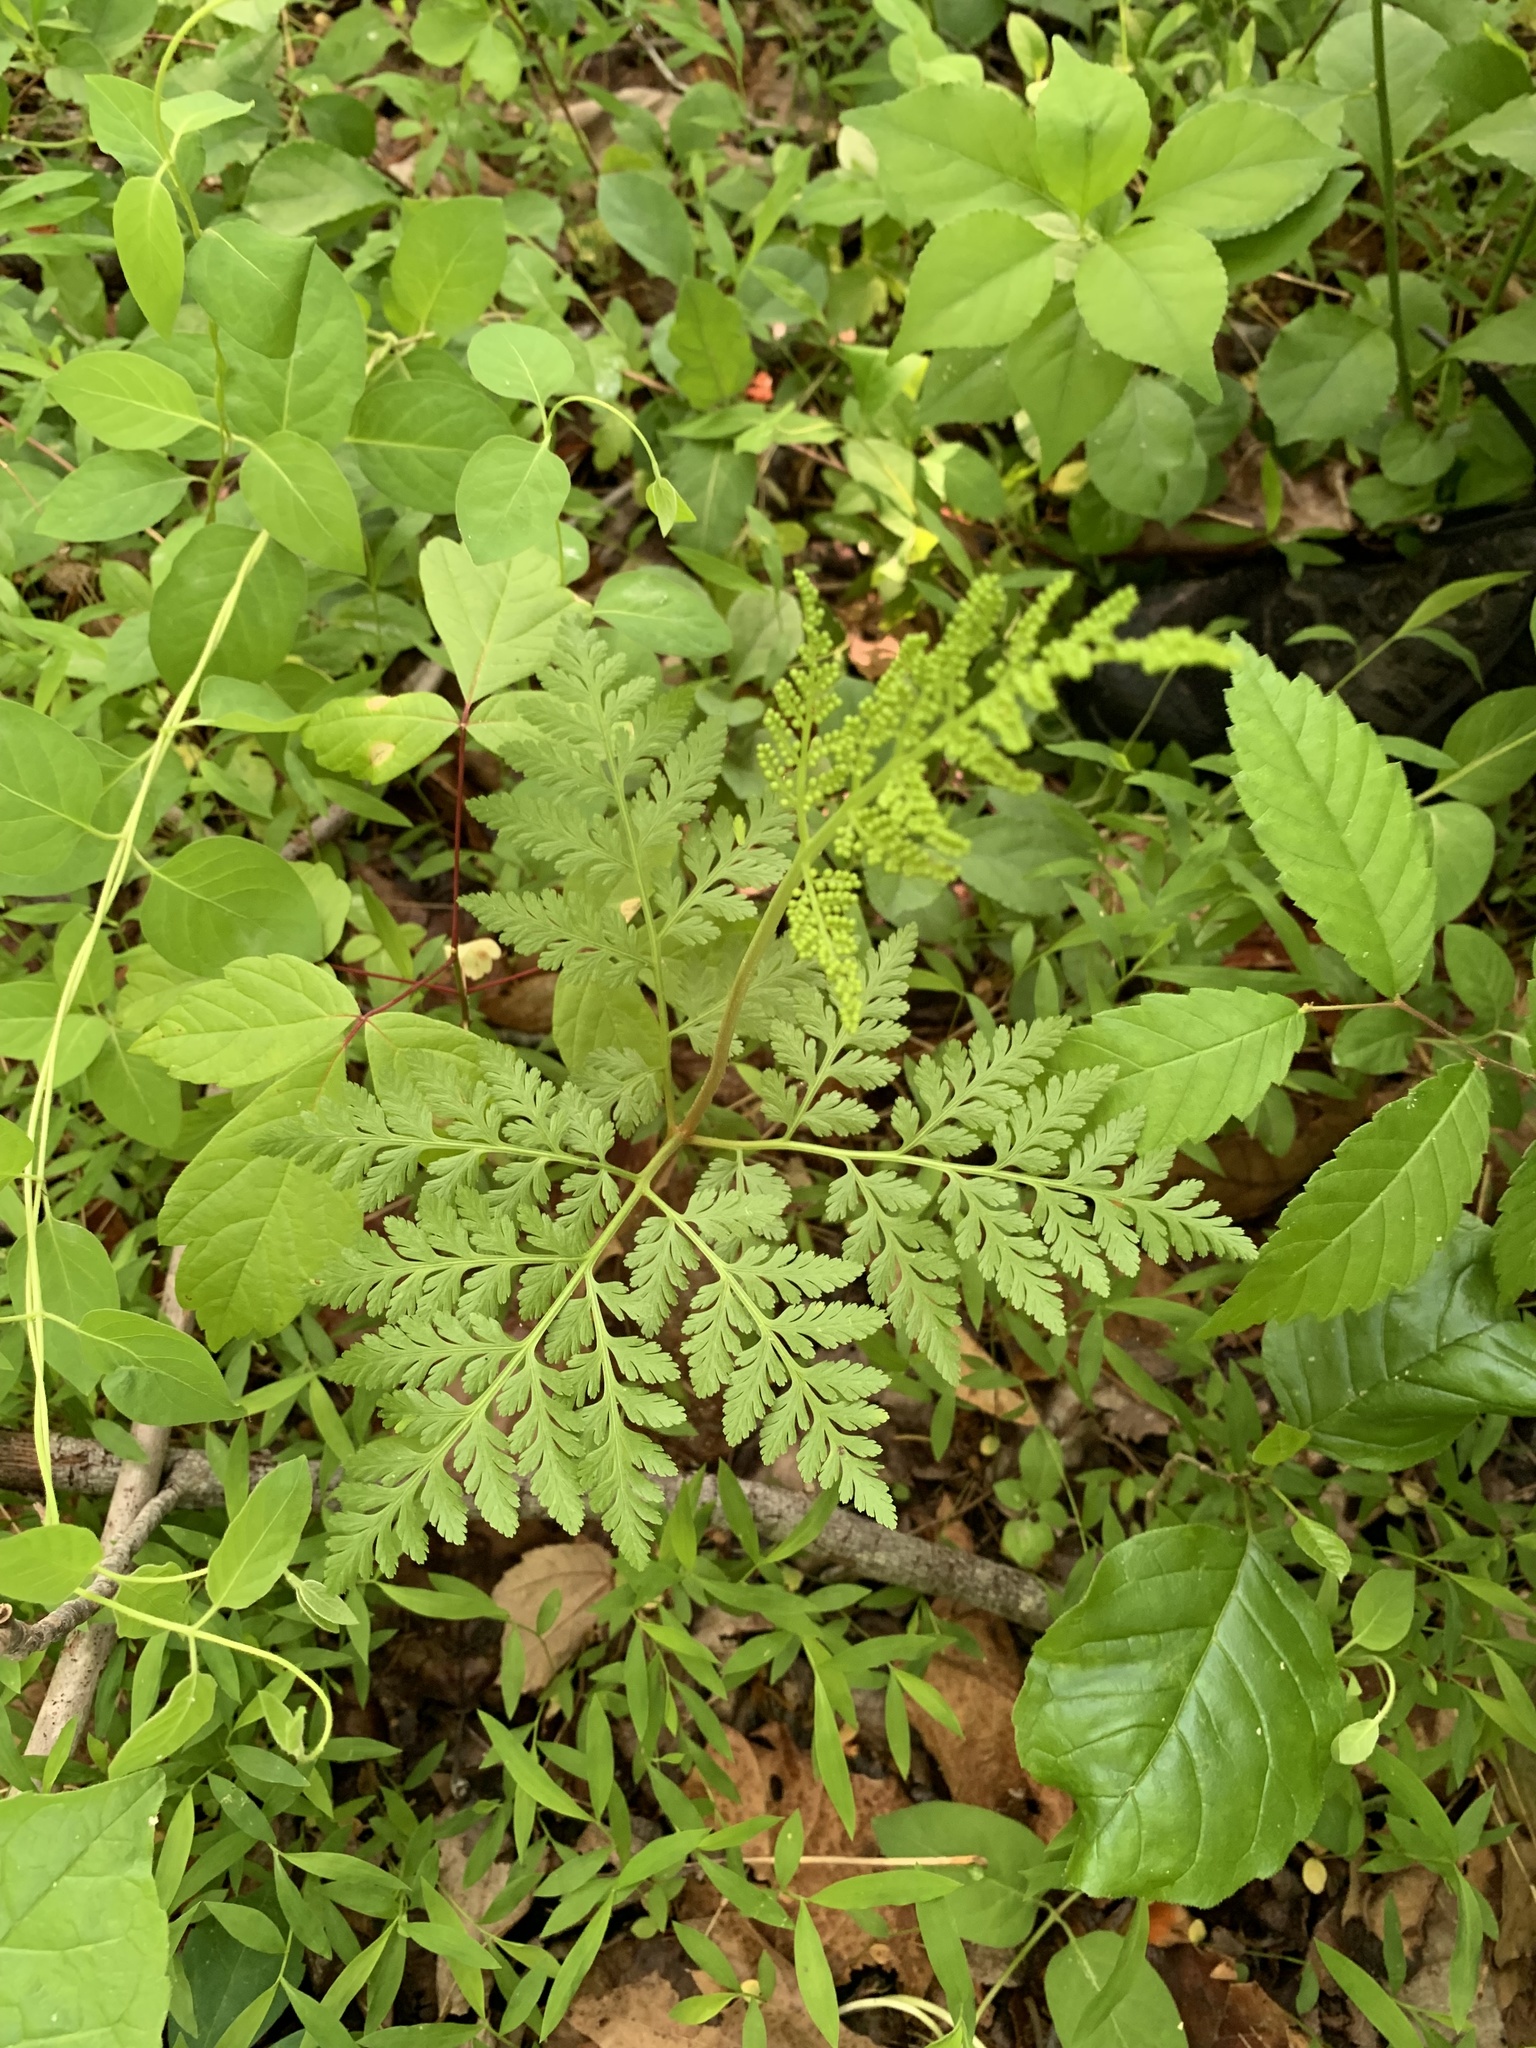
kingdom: Plantae
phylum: Tracheophyta
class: Polypodiopsida
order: Ophioglossales
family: Ophioglossaceae
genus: Botrypus
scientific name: Botrypus virginianus
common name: Common grapefern
